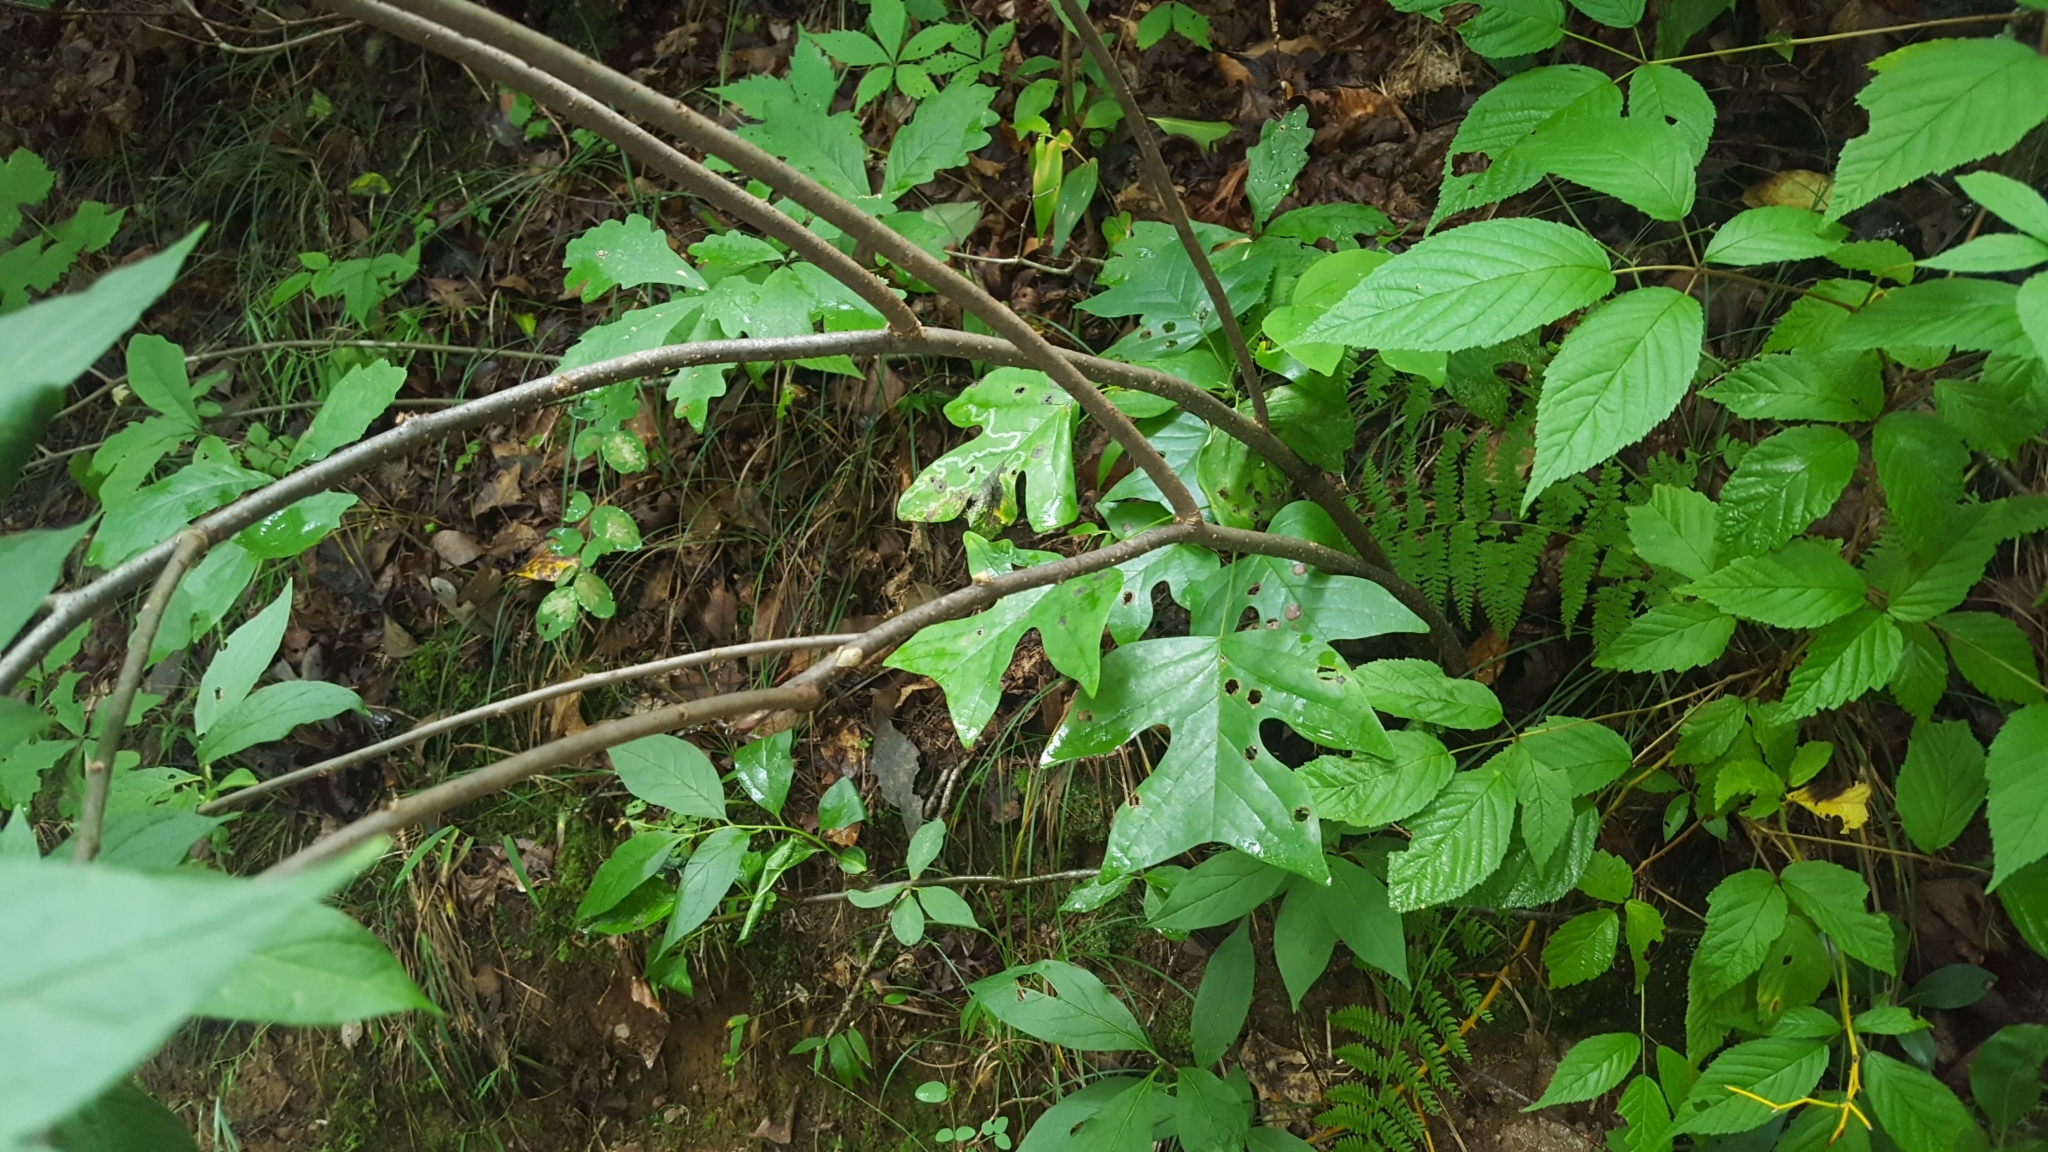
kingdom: Plantae
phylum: Tracheophyta
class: Magnoliopsida
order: Santalales
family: Cervantesiaceae
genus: Pyrularia
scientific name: Pyrularia pubera
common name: Oilnut
